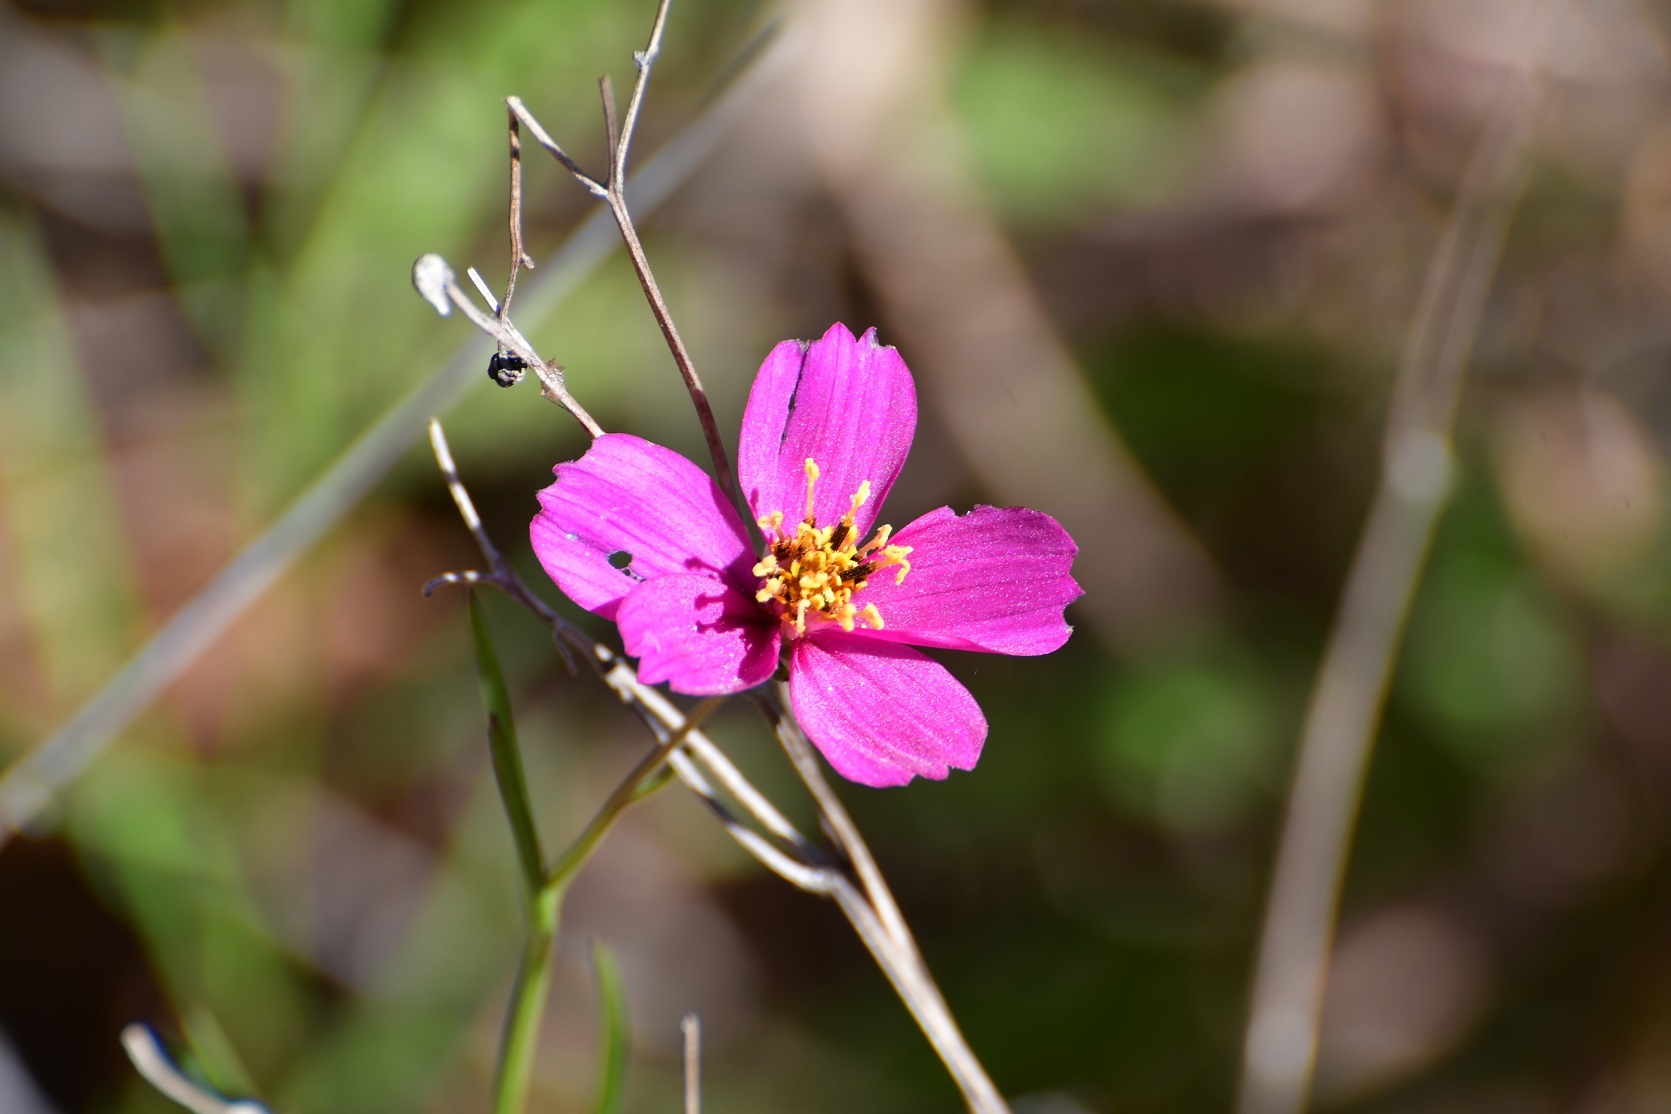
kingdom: Plantae
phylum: Tracheophyta
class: Magnoliopsida
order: Asterales
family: Asteraceae
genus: Cosmos
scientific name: Cosmos crithmifolius
